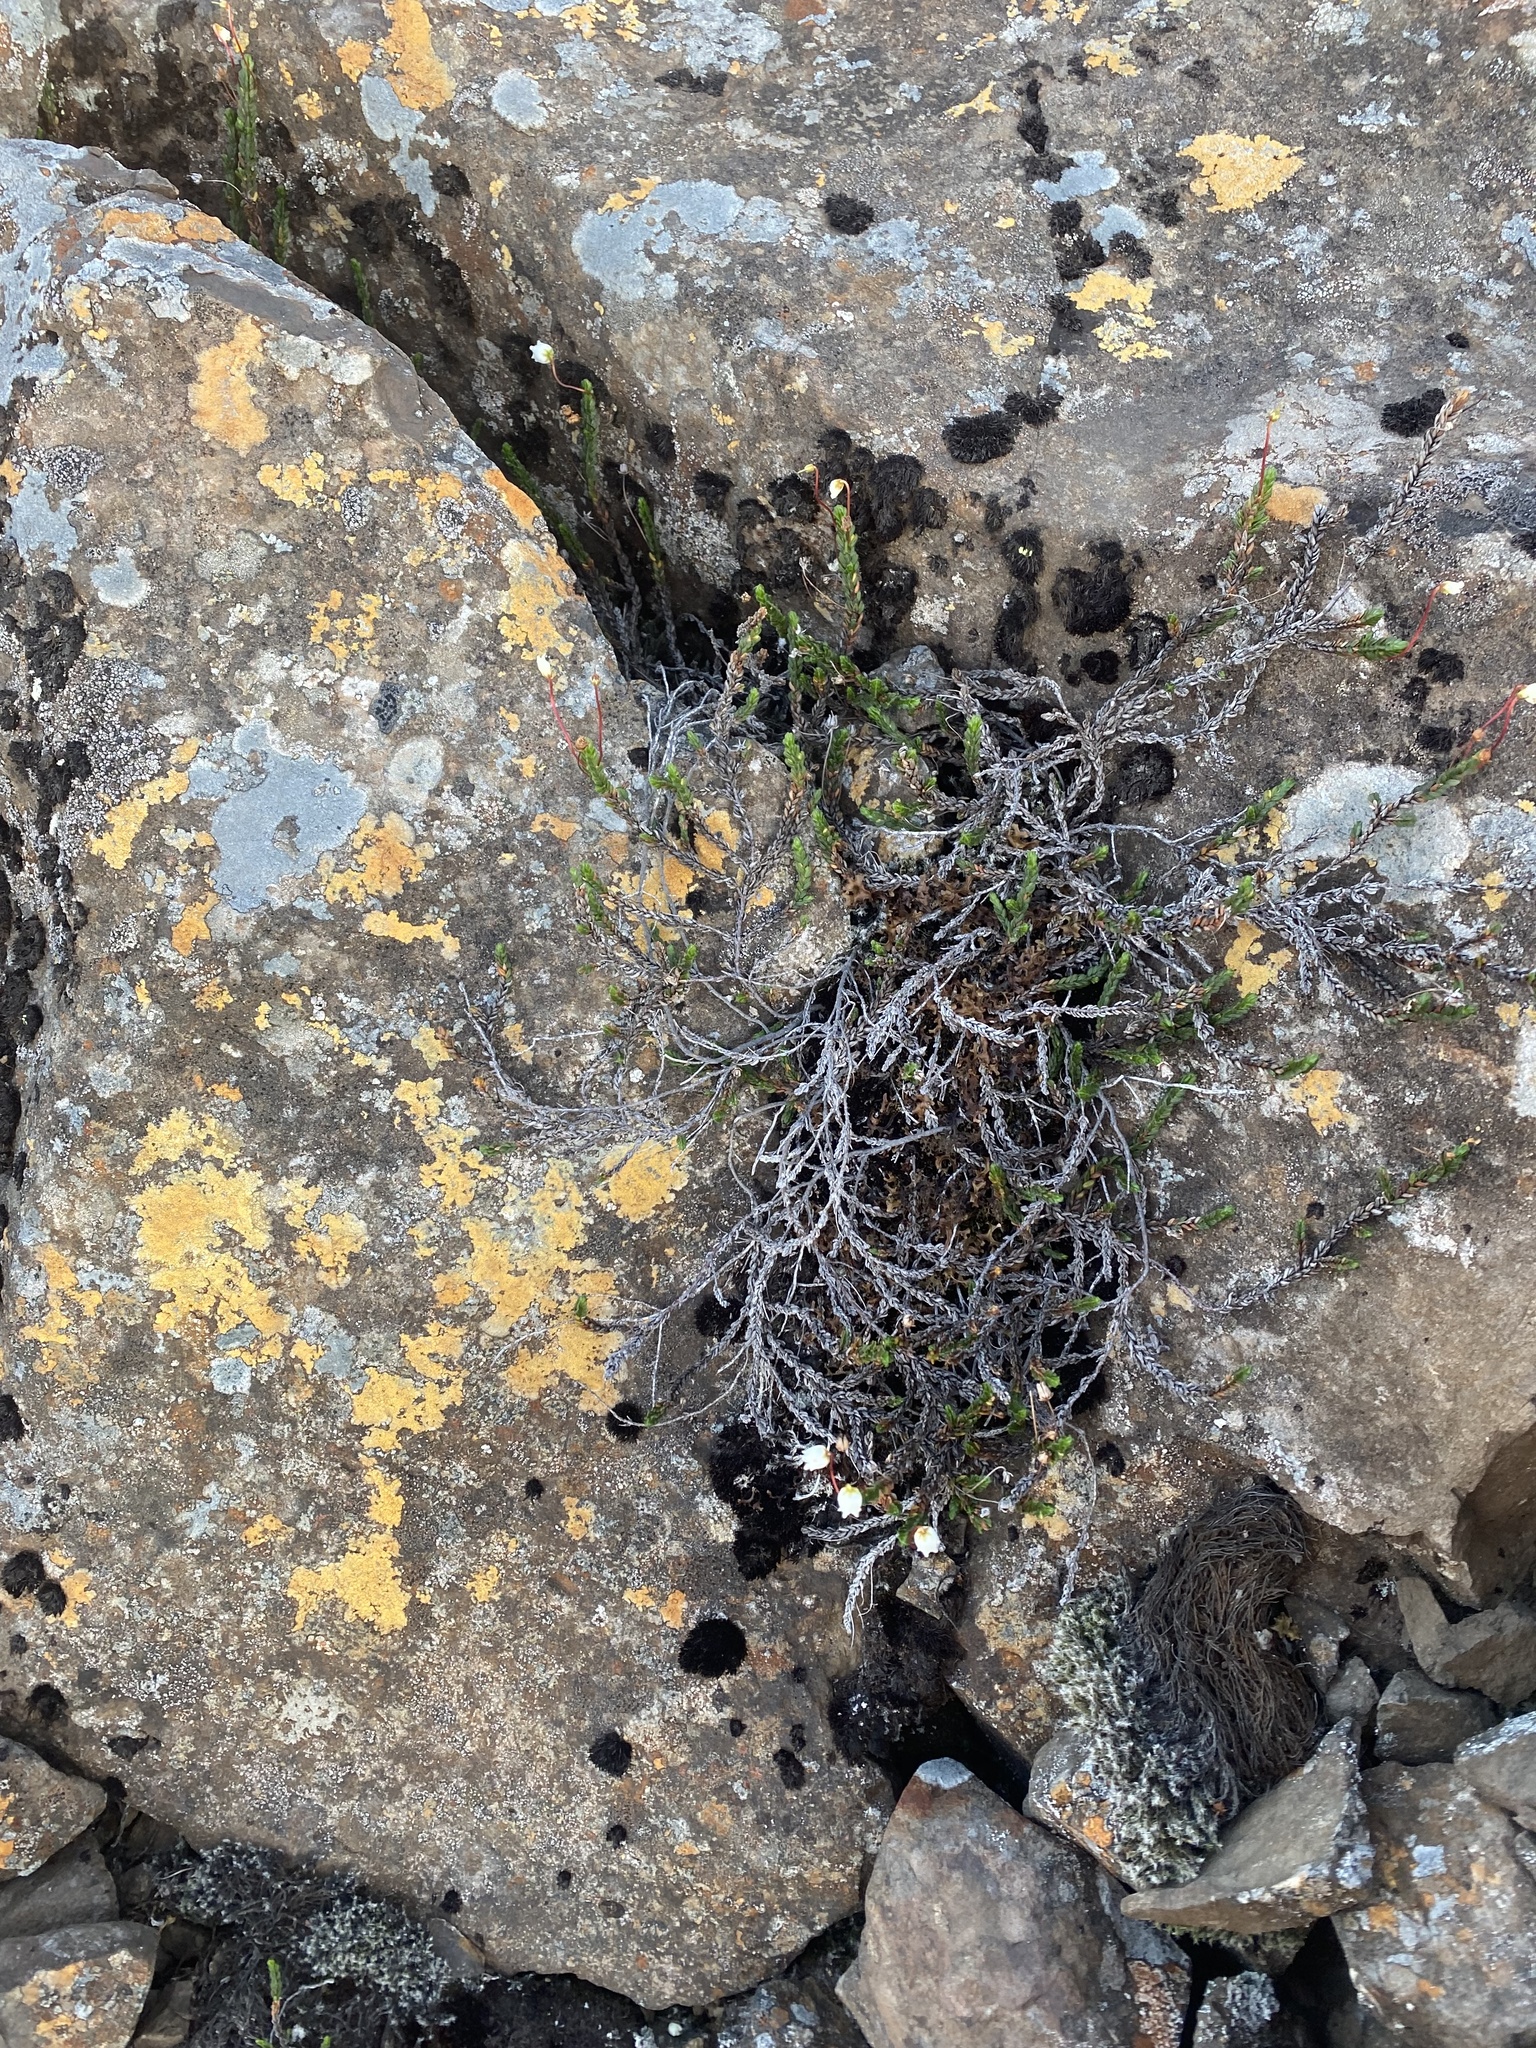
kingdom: Plantae
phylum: Tracheophyta
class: Magnoliopsida
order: Ericales
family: Ericaceae
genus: Cassiope
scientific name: Cassiope tetragona
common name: Arctic bell heather
